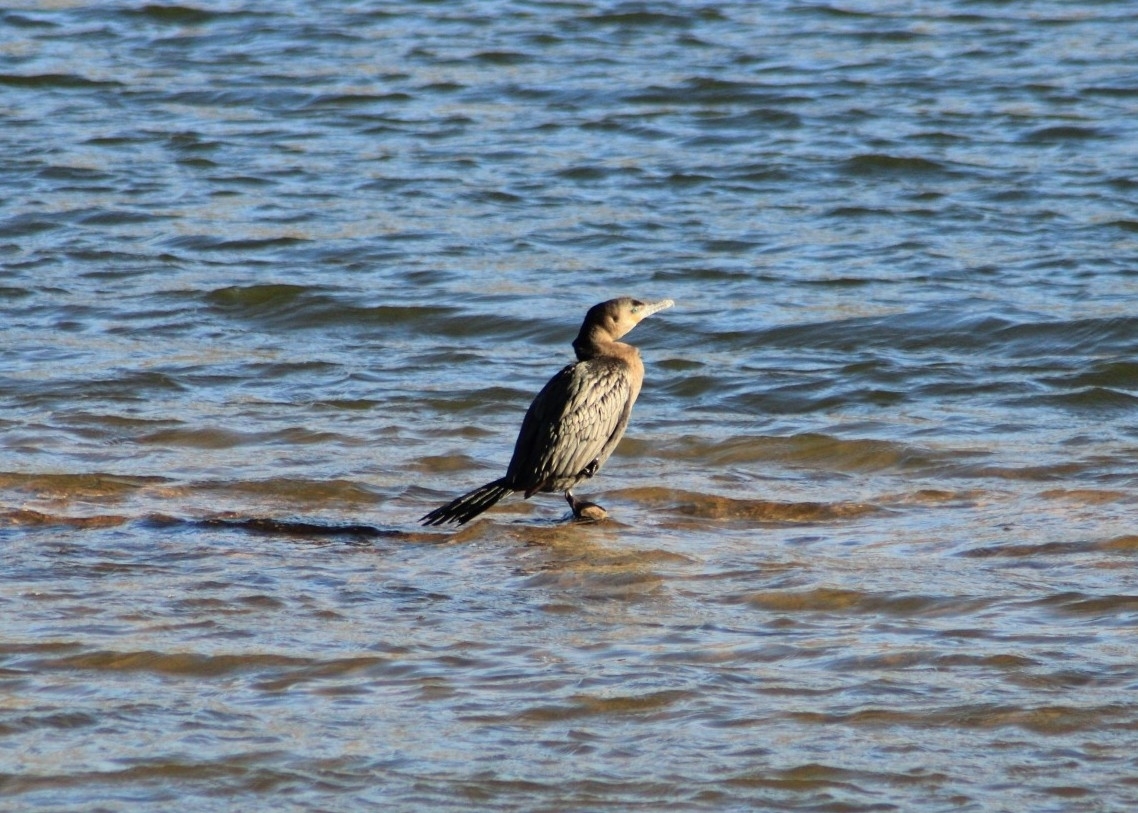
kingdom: Animalia
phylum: Chordata
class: Aves
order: Suliformes
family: Phalacrocoracidae
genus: Phalacrocorax
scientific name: Phalacrocorax brasilianus
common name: Neotropic cormorant
